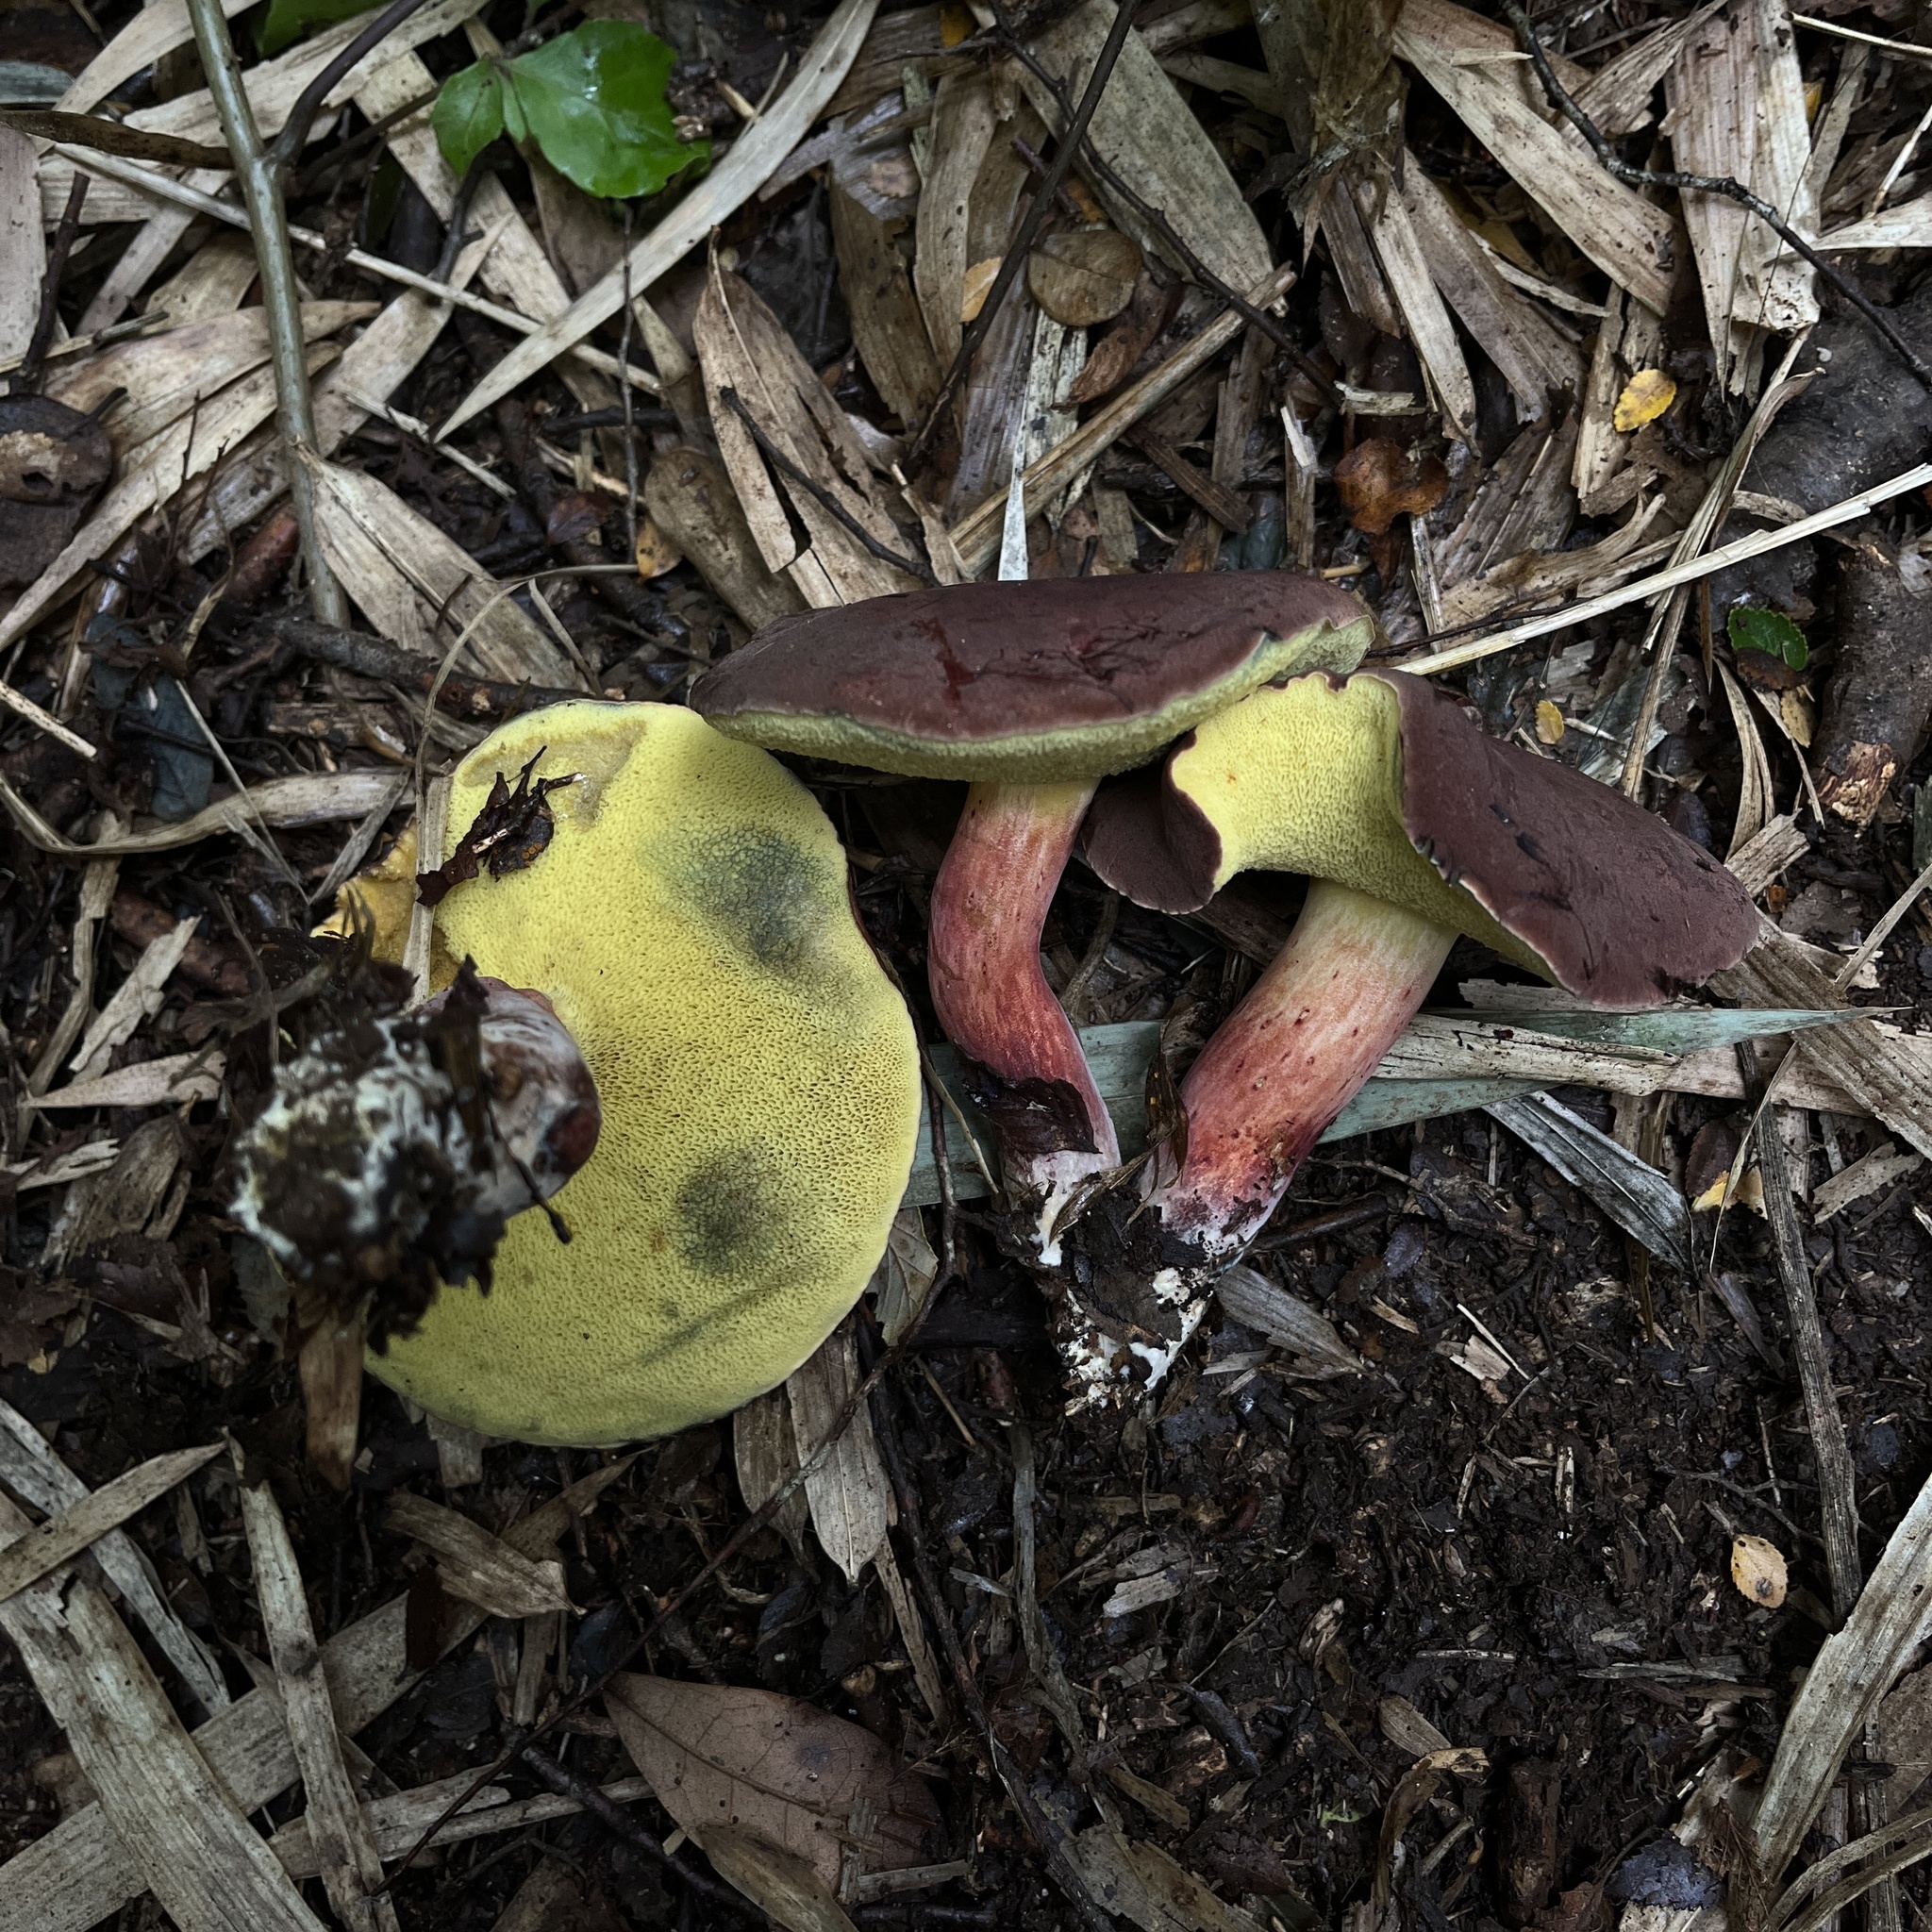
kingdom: Fungi
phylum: Basidiomycota
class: Agaricomycetes
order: Boletales
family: Boletaceae
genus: Boletus
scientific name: Boletus loyita
